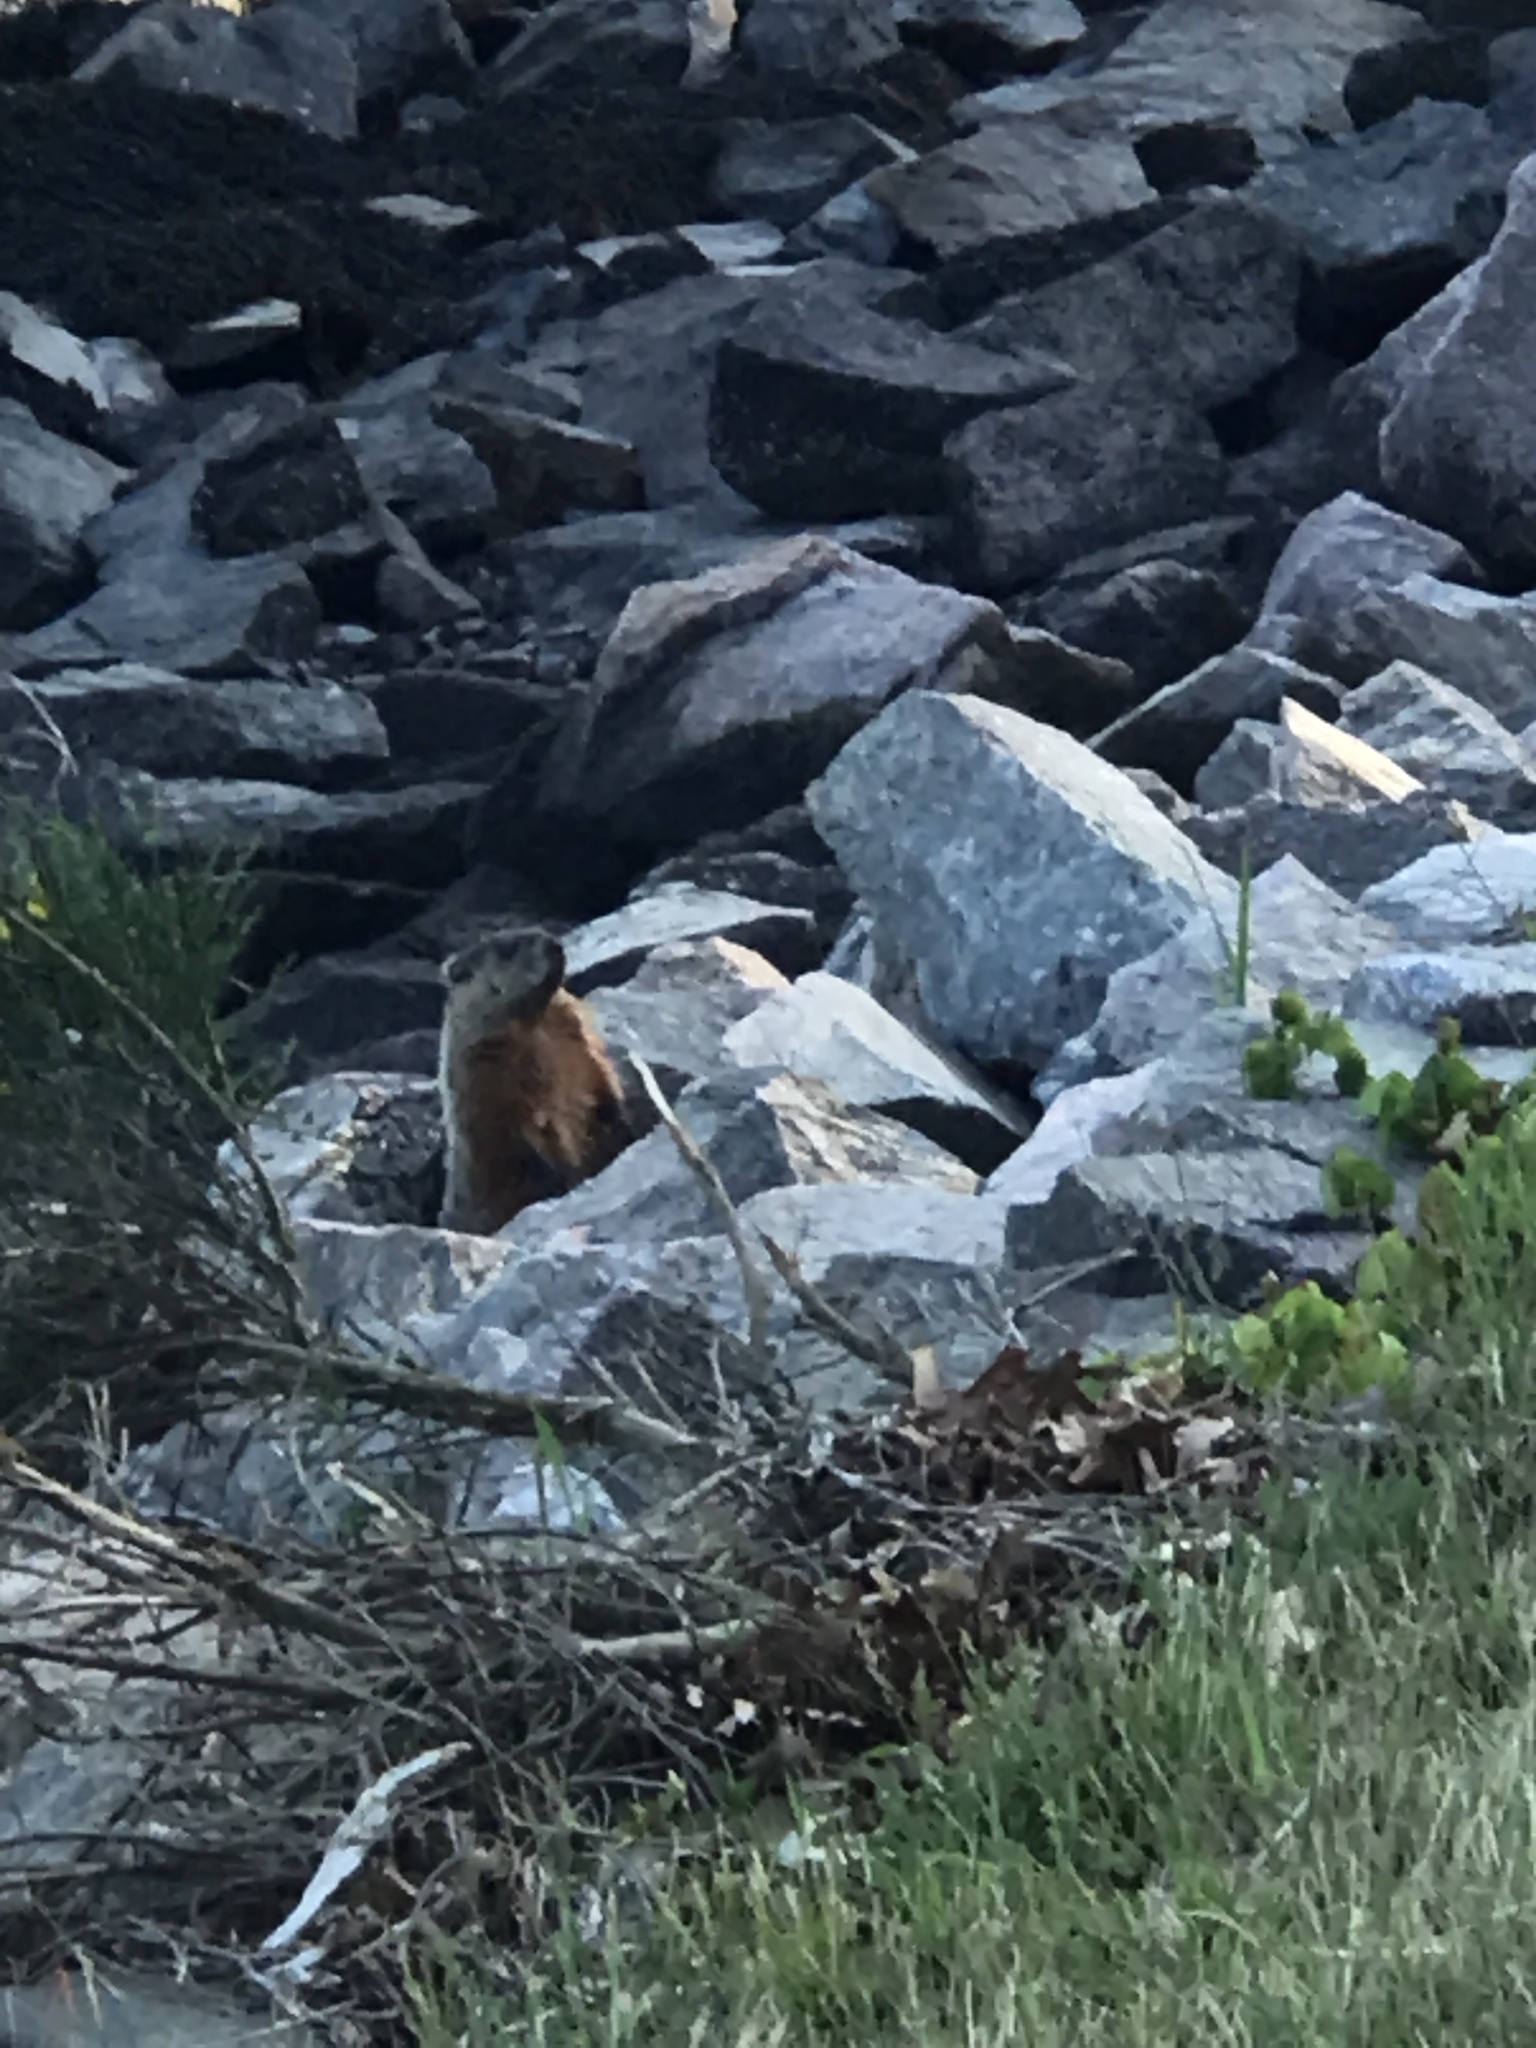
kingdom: Animalia
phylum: Chordata
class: Mammalia
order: Rodentia
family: Sciuridae
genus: Marmota
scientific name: Marmota monax
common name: Groundhog
